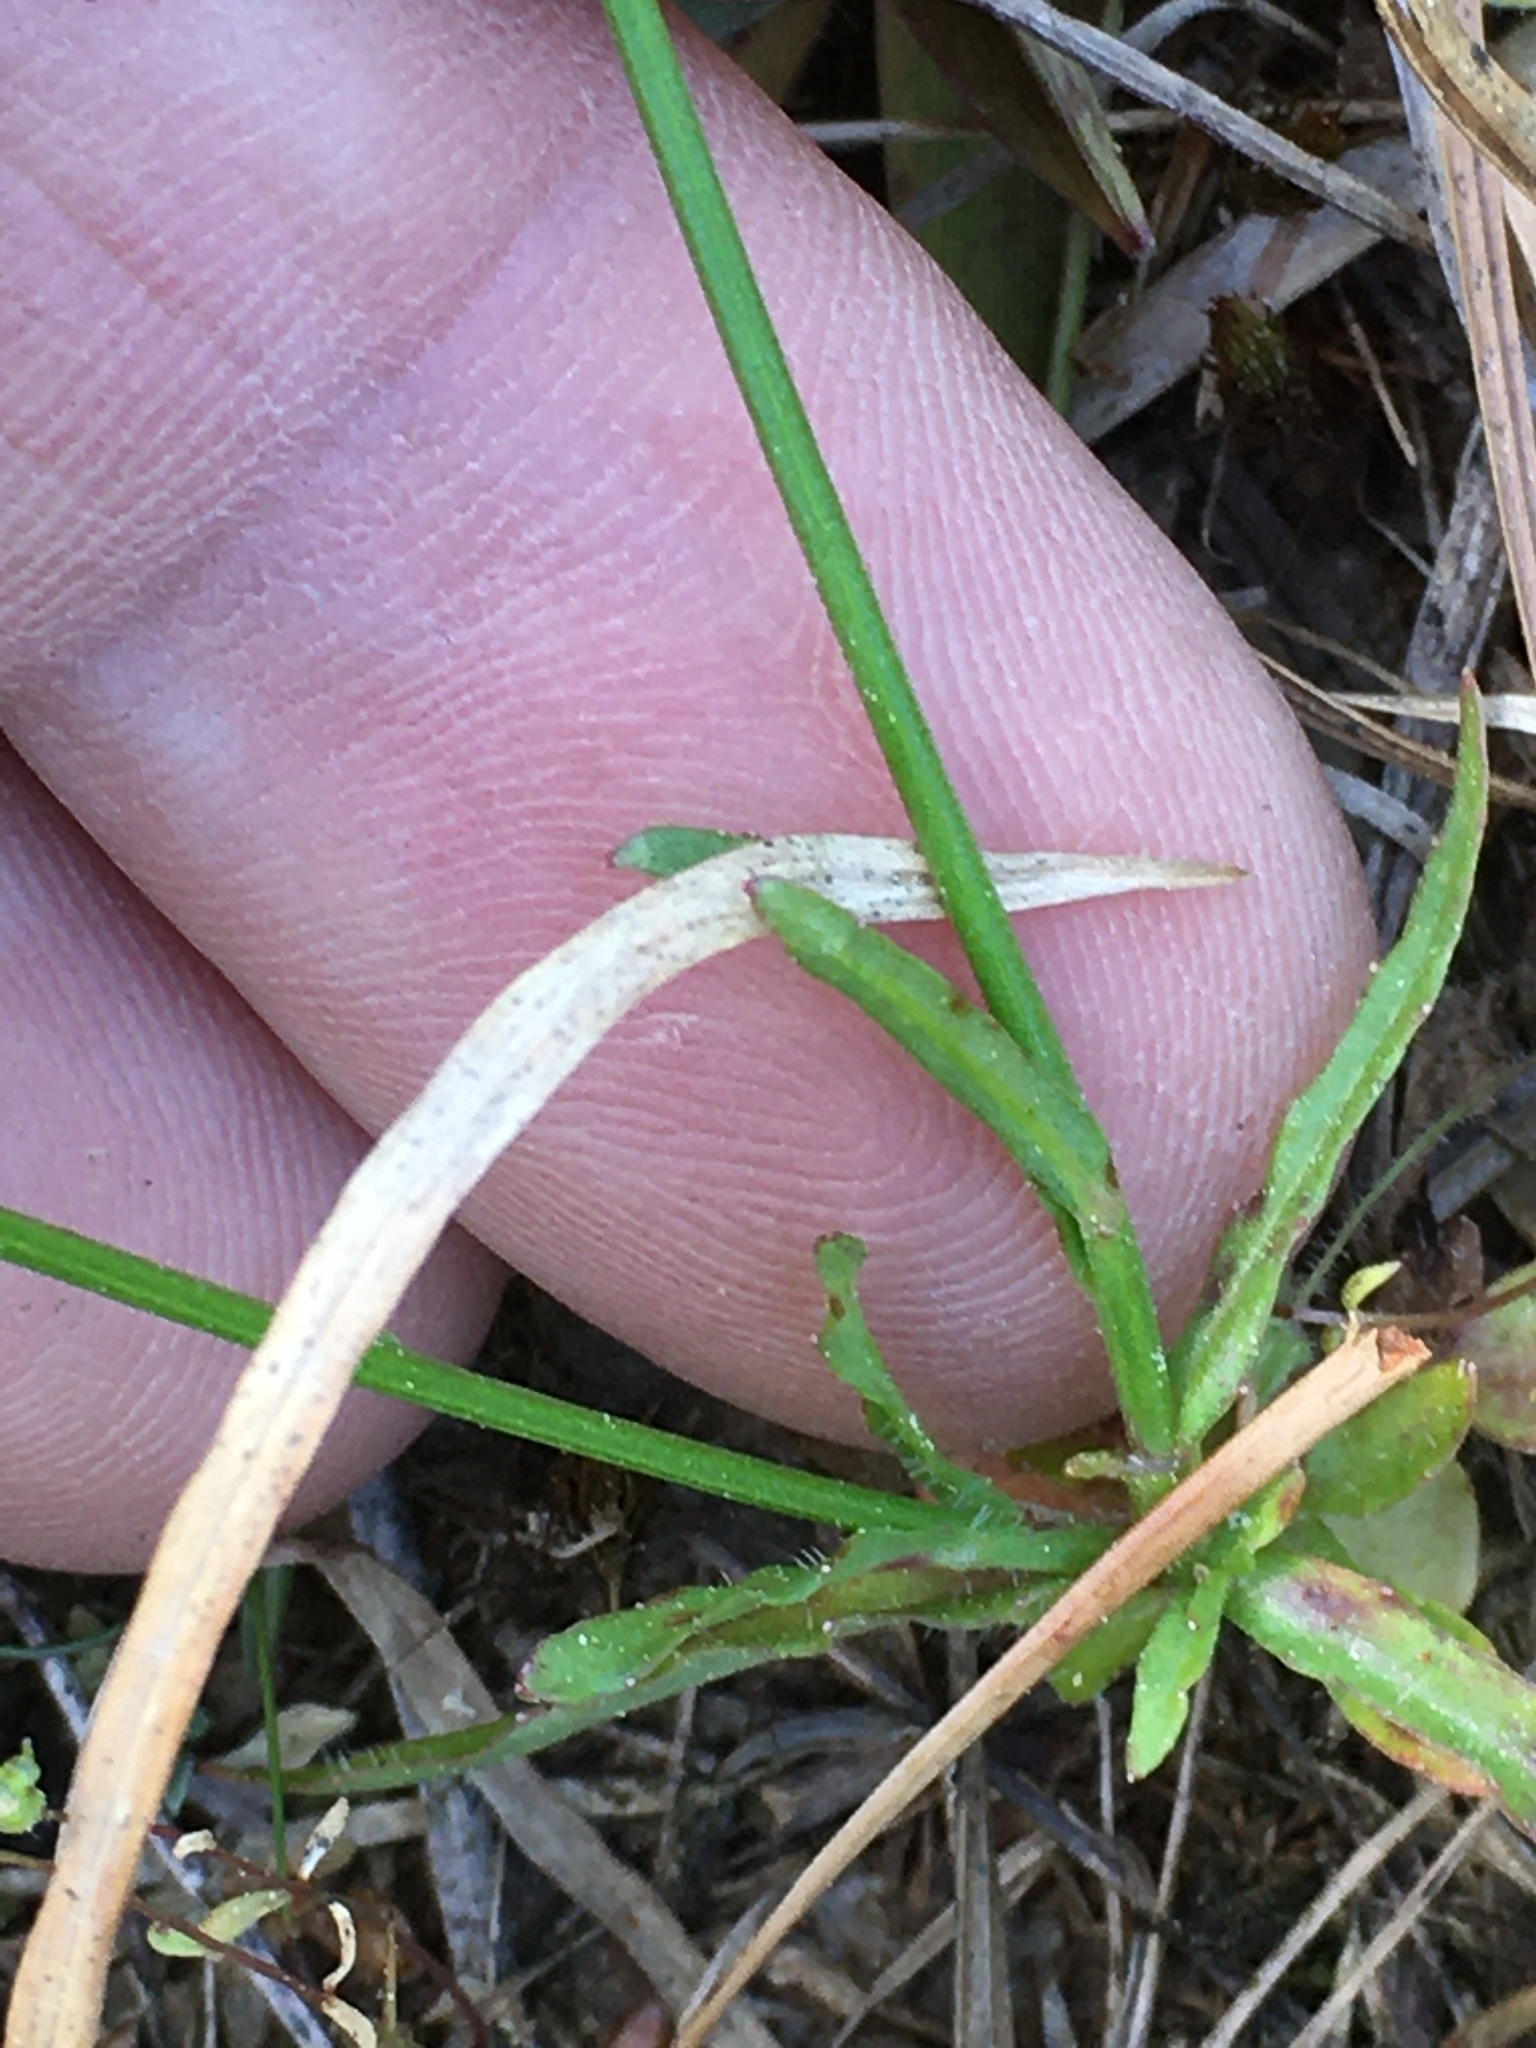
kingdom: Plantae
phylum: Tracheophyta
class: Magnoliopsida
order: Asterales
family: Campanulaceae
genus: Wahlenbergia
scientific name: Wahlenbergia marginata
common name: Southern rockbell
